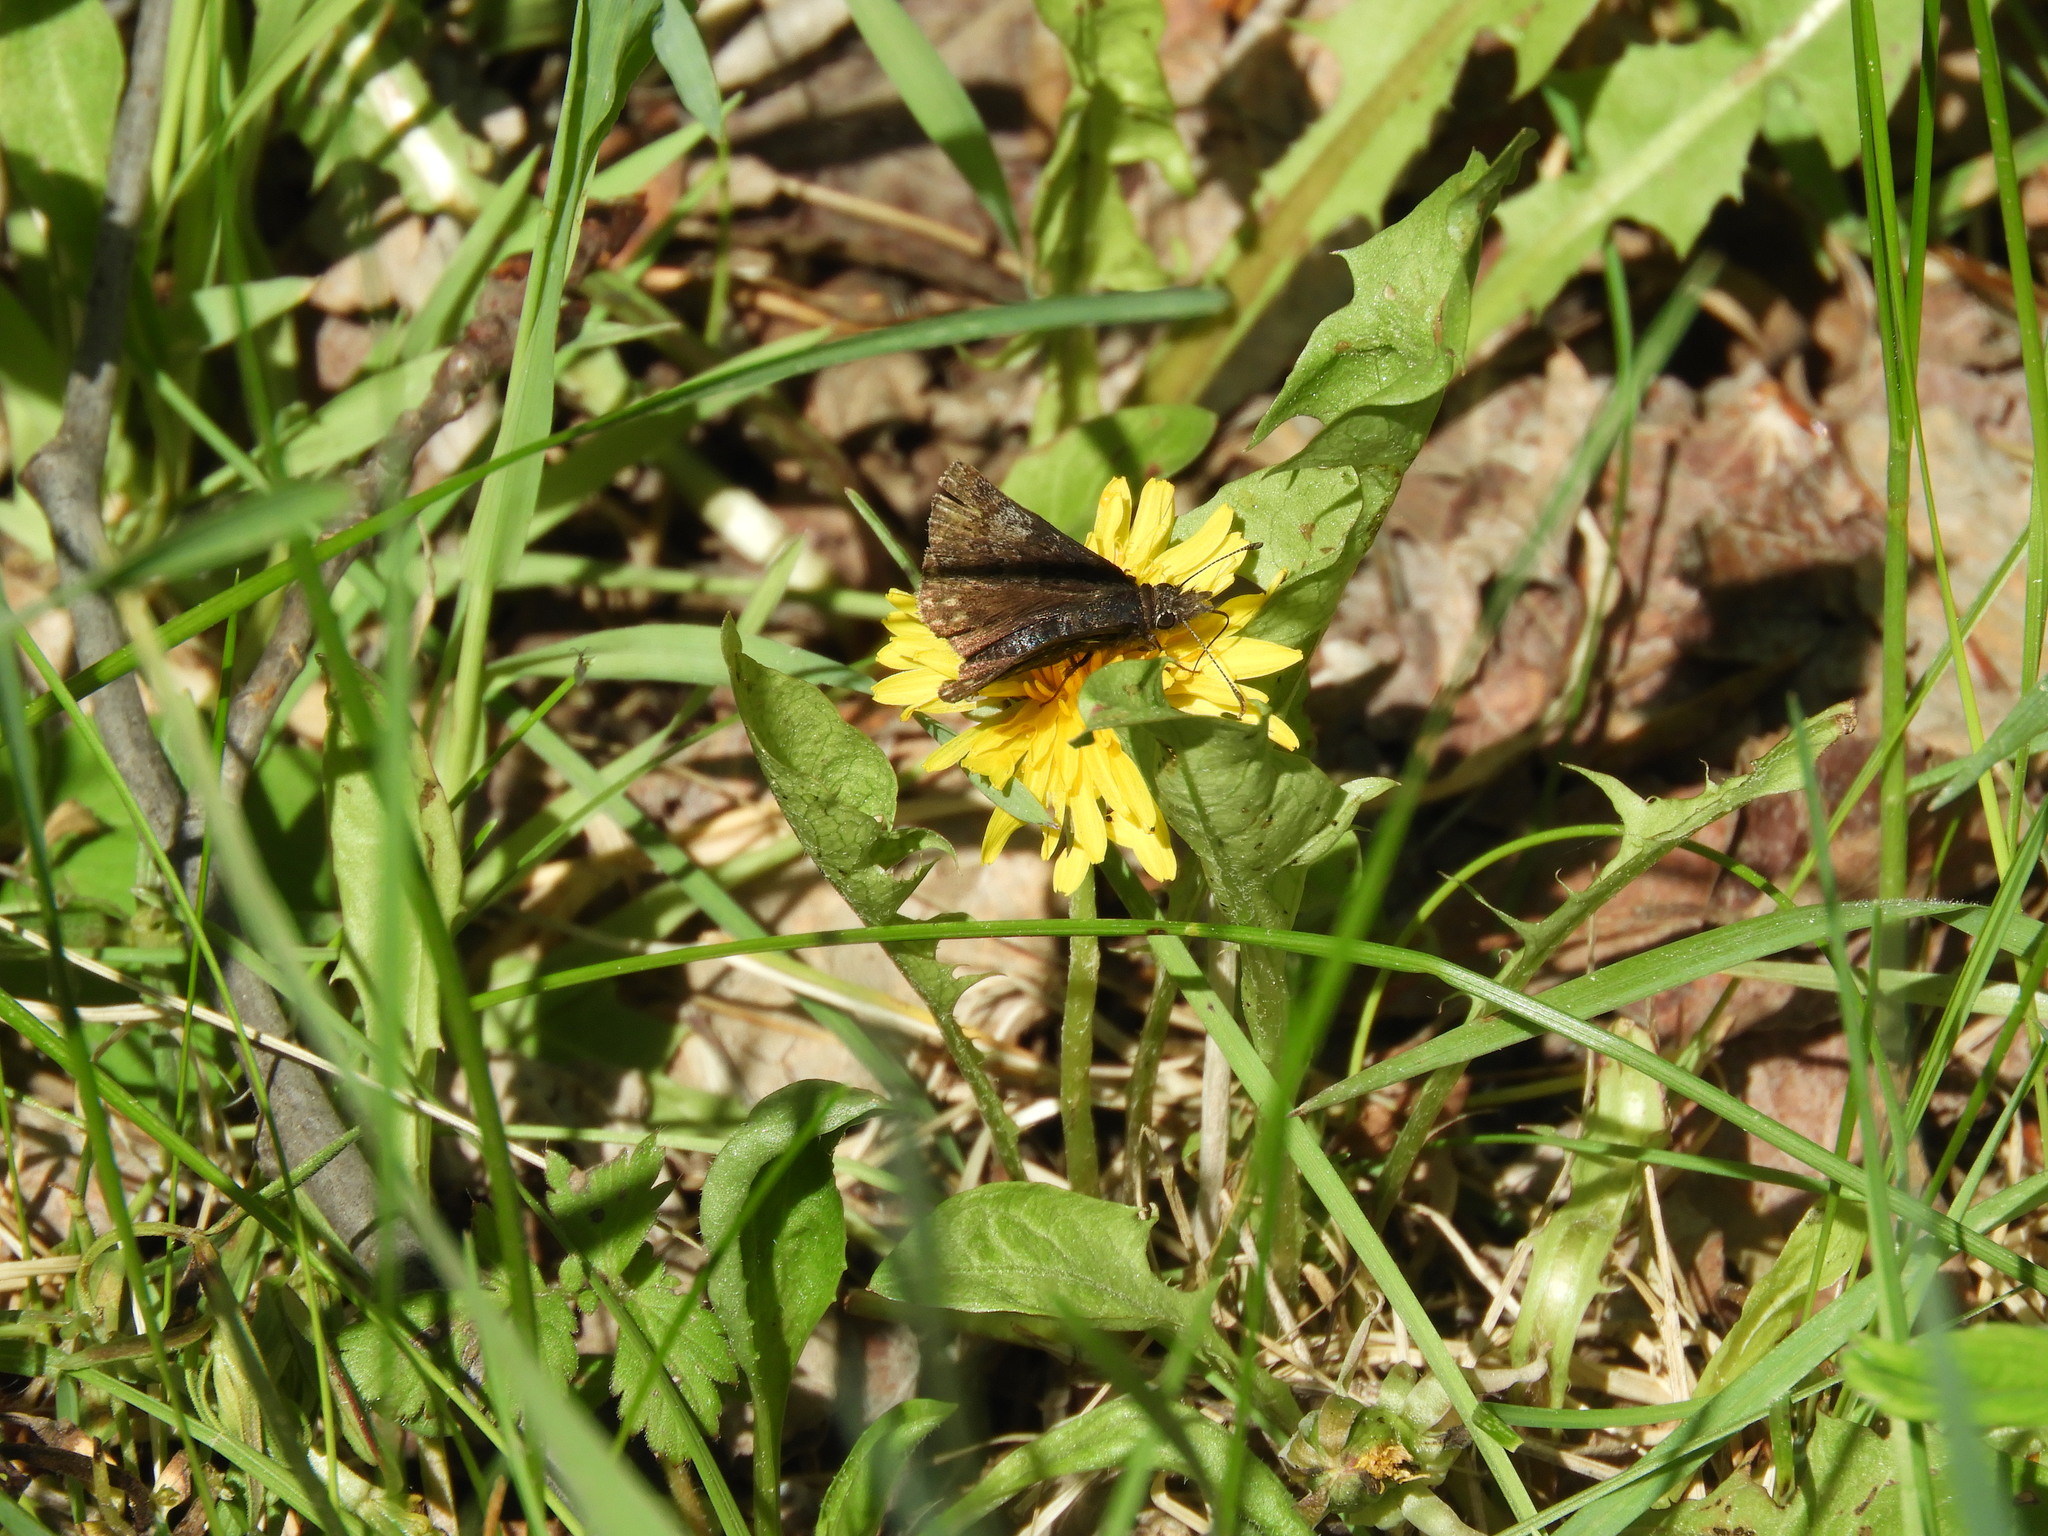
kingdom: Animalia
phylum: Arthropoda
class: Insecta
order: Lepidoptera
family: Hesperiidae
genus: Erynnis
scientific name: Erynnis icelus
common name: Dreamy duskywing
